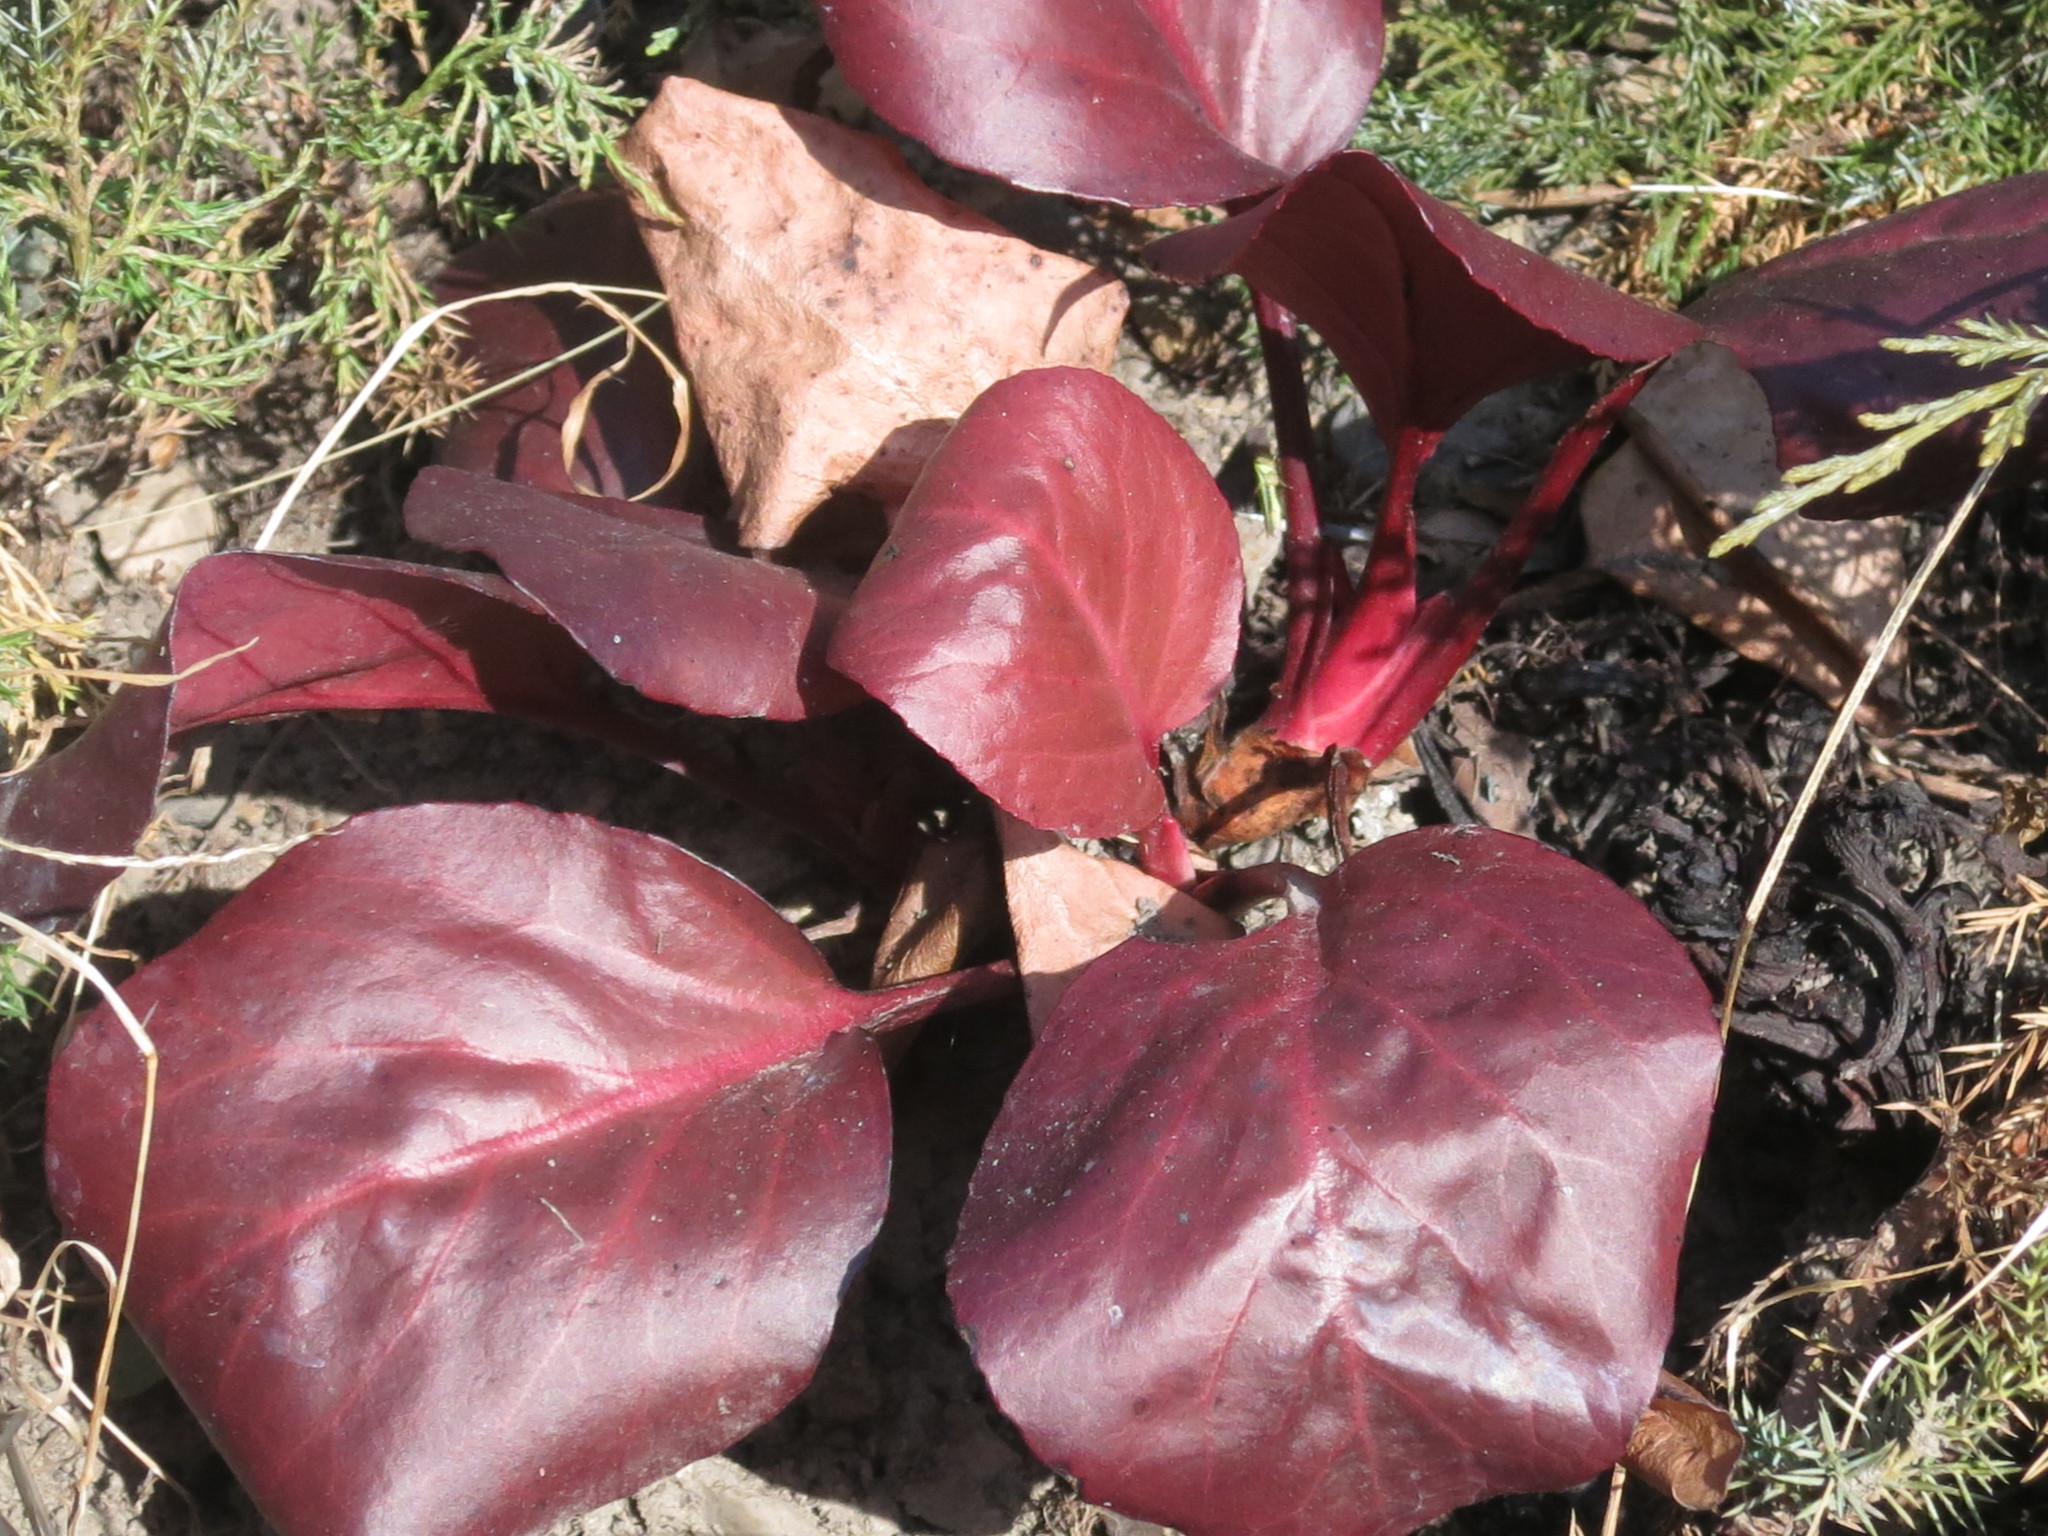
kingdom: Plantae
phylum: Tracheophyta
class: Magnoliopsida
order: Saxifragales
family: Saxifragaceae
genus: Bergenia
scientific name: Bergenia crassifolia
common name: Elephant-ears
